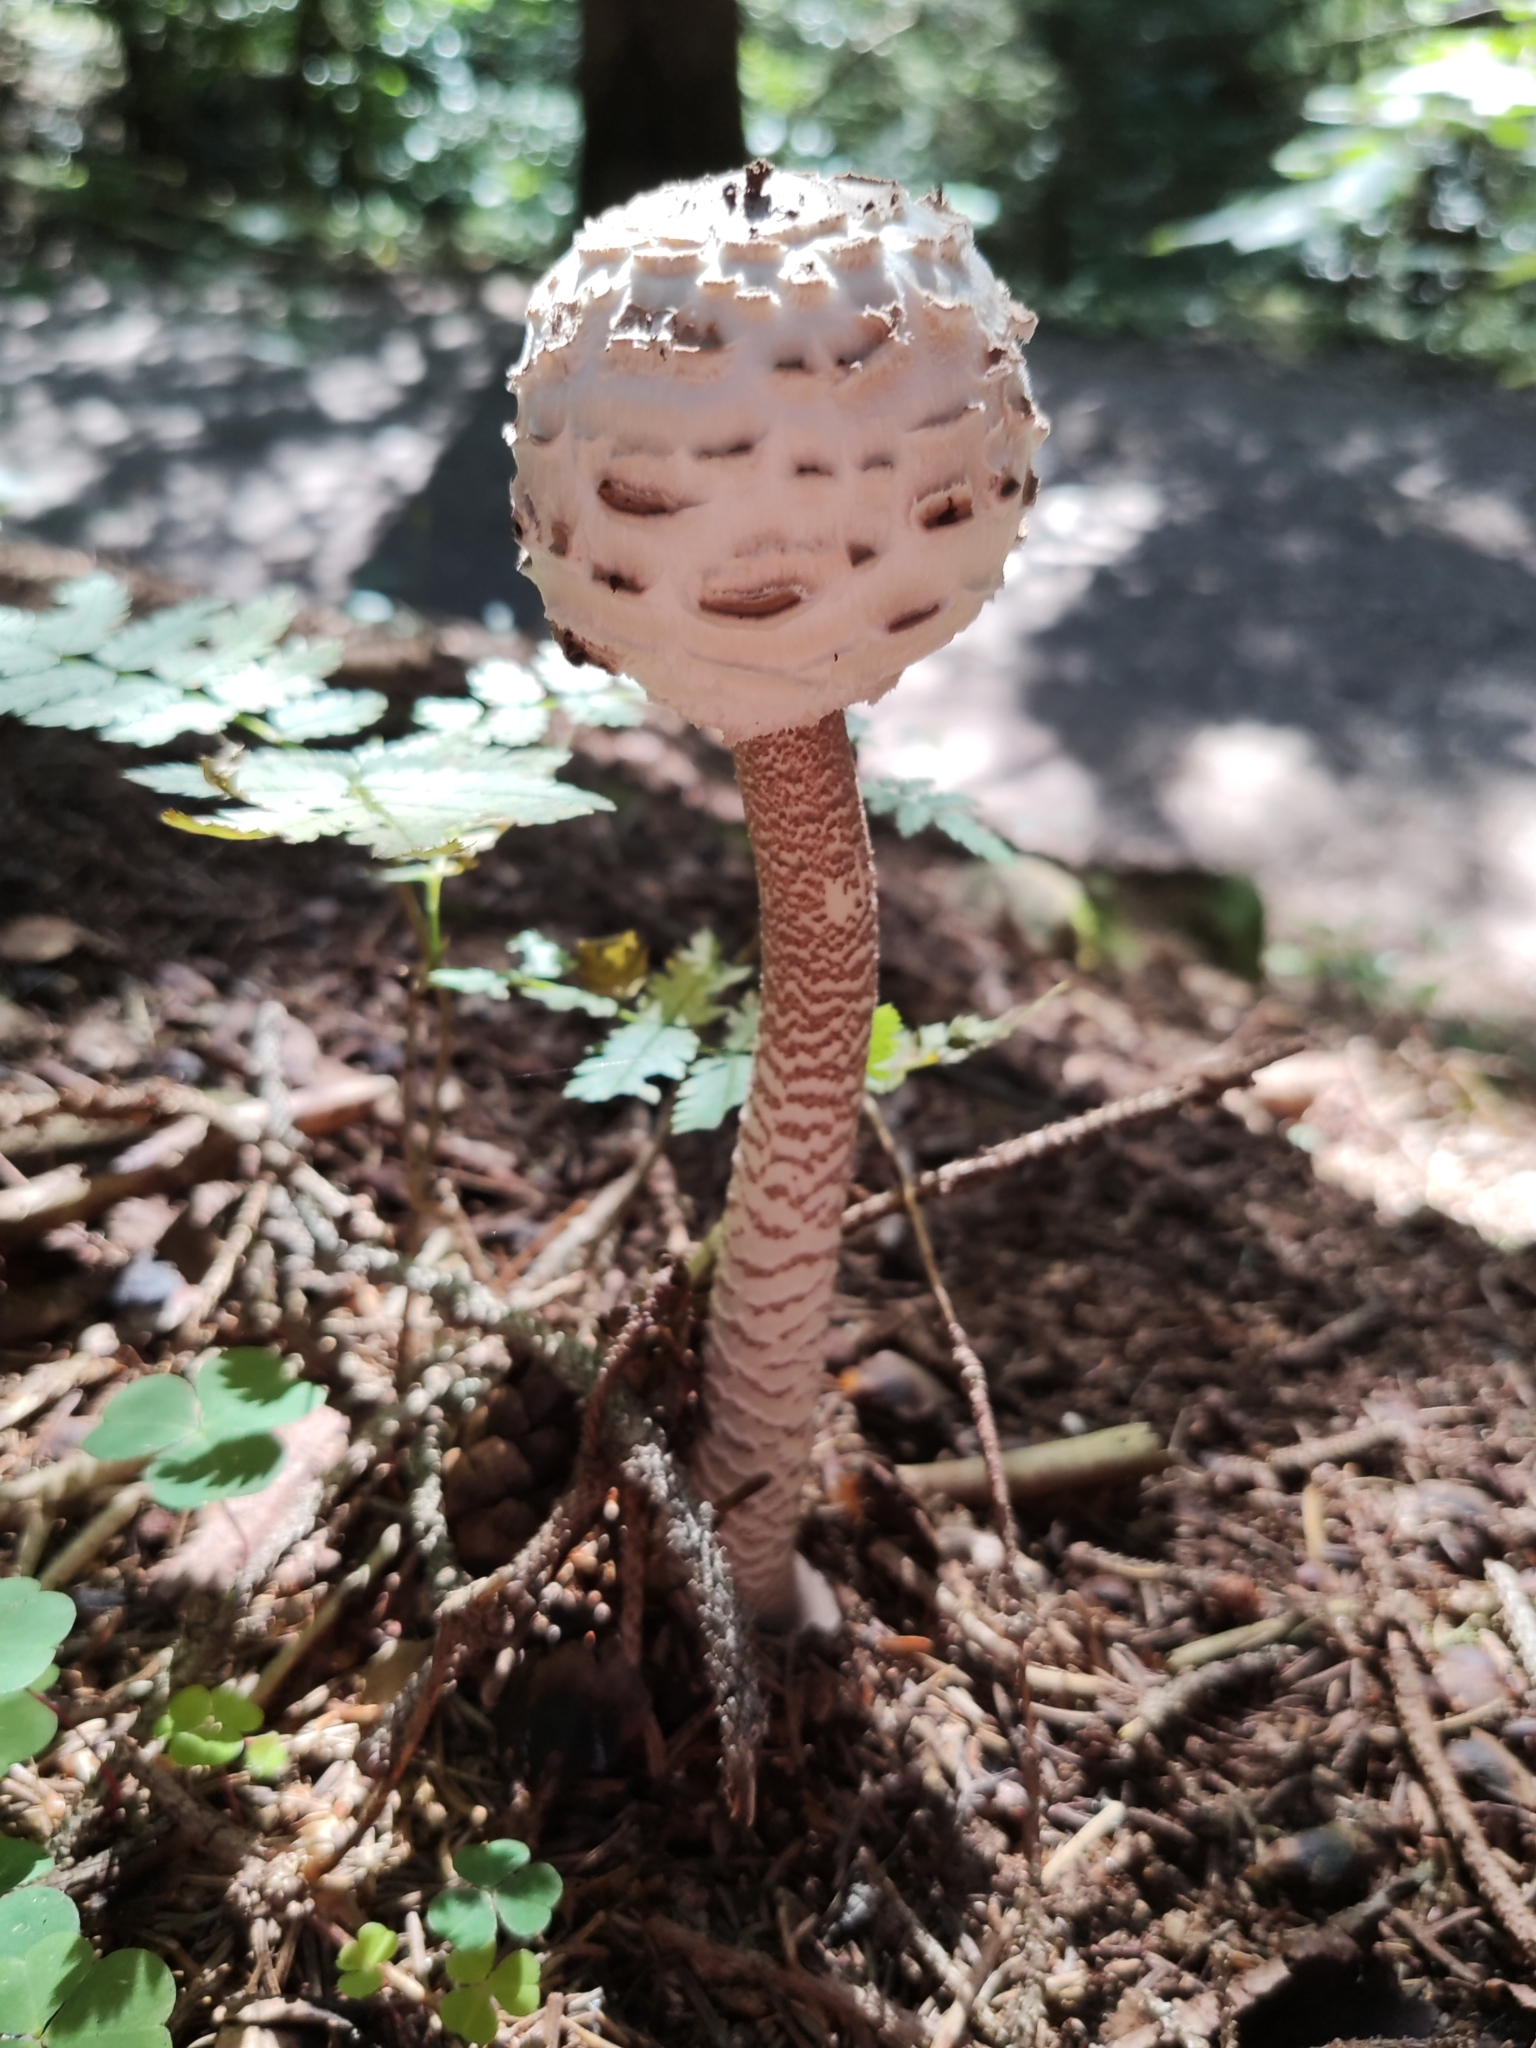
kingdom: Fungi
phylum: Basidiomycota
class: Agaricomycetes
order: Agaricales
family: Agaricaceae
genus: Macrolepiota
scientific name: Macrolepiota procera
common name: Parasol
